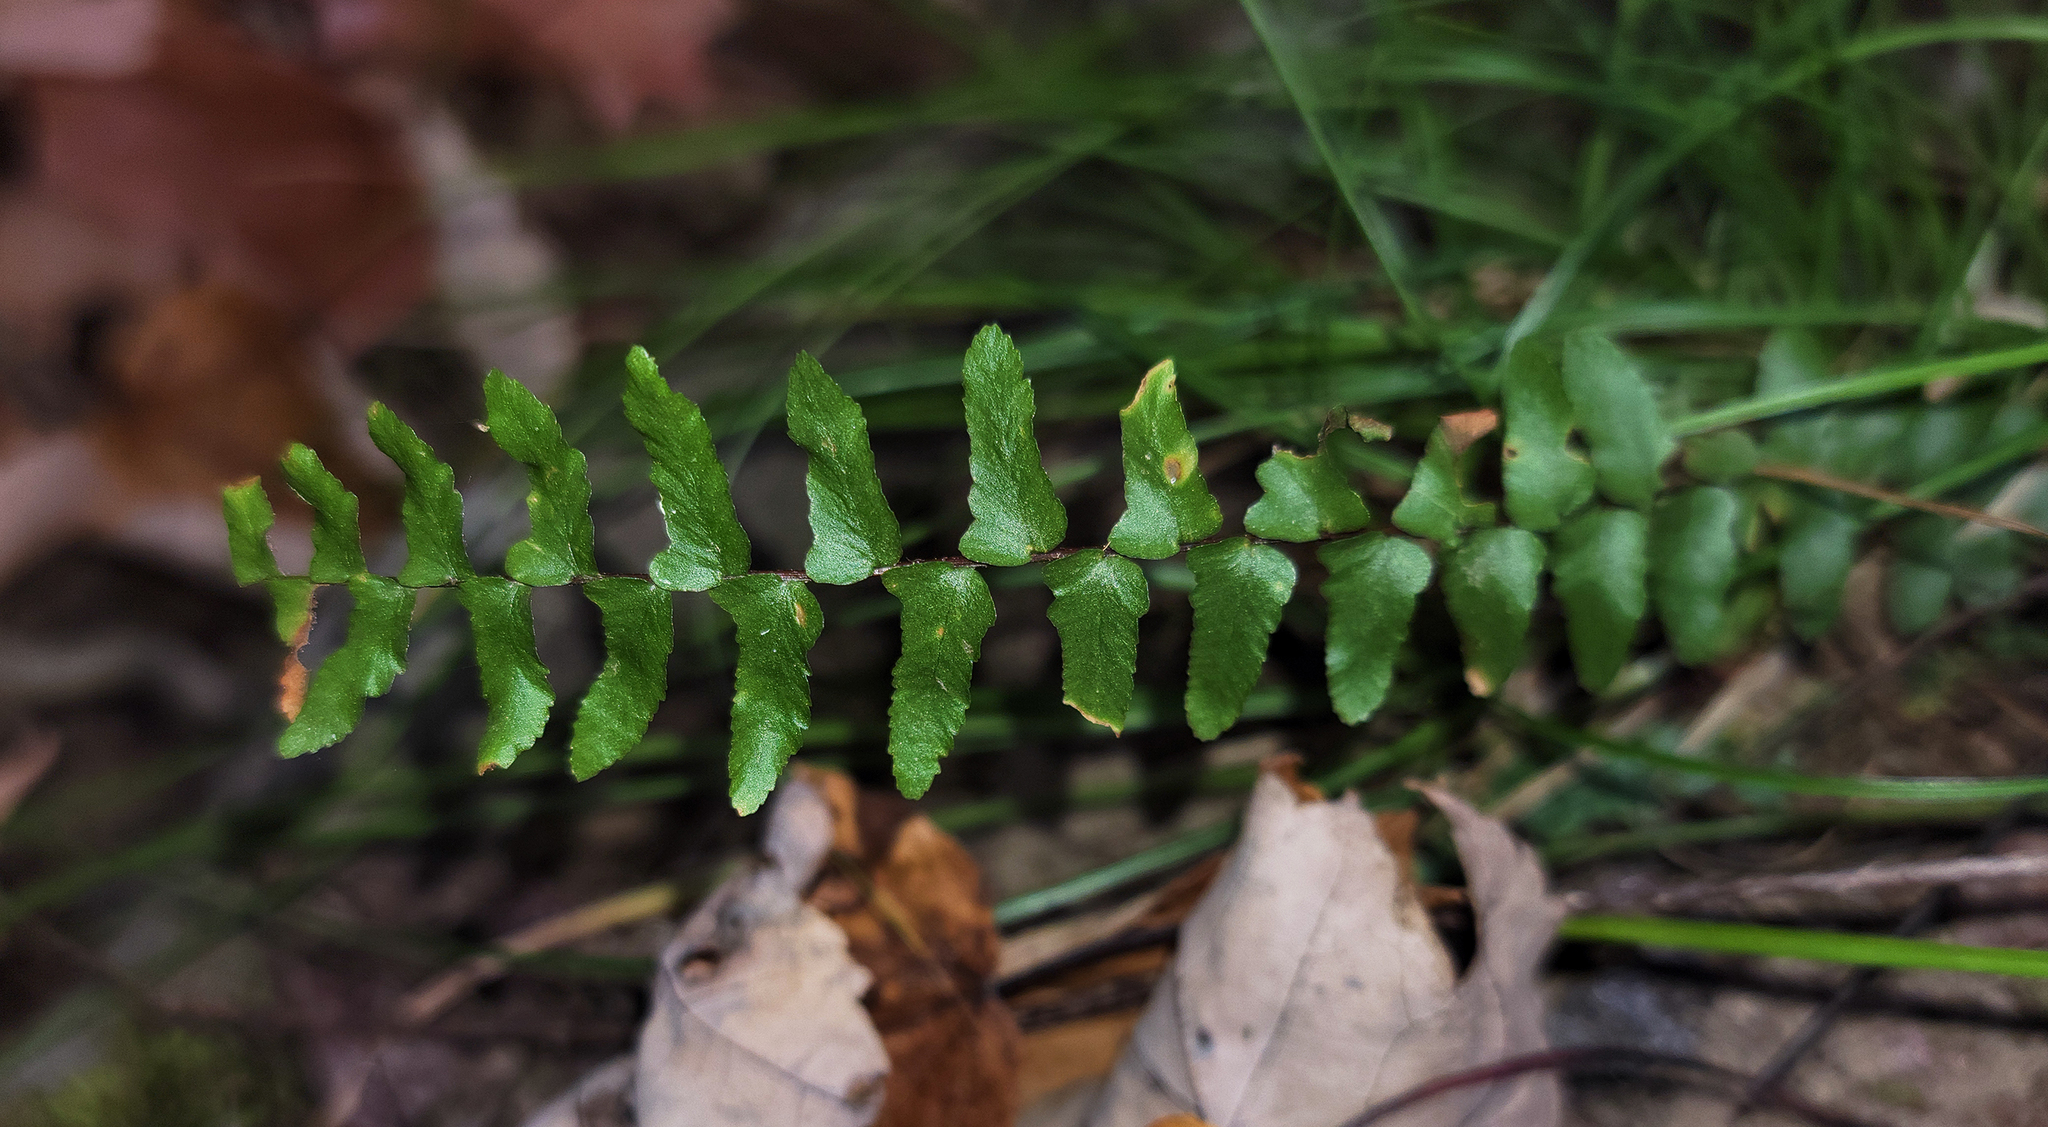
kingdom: Plantae
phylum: Tracheophyta
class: Polypodiopsida
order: Polypodiales
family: Aspleniaceae
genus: Asplenium
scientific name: Asplenium platyneuron
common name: Ebony spleenwort
